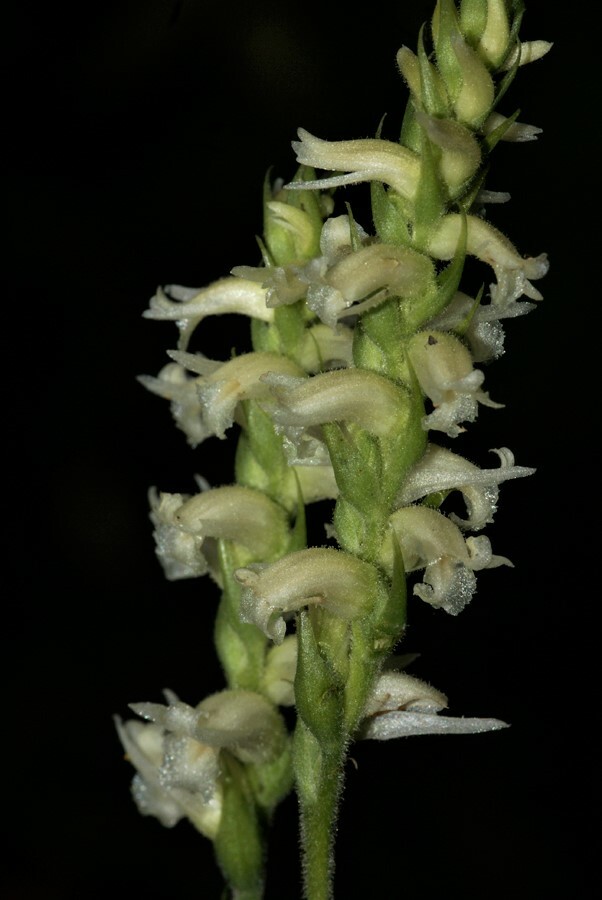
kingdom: Plantae
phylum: Tracheophyta
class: Liliopsida
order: Asparagales
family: Orchidaceae
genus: Spiranthes
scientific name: Spiranthes ochroleuca
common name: Yellow ladies'-tresses
